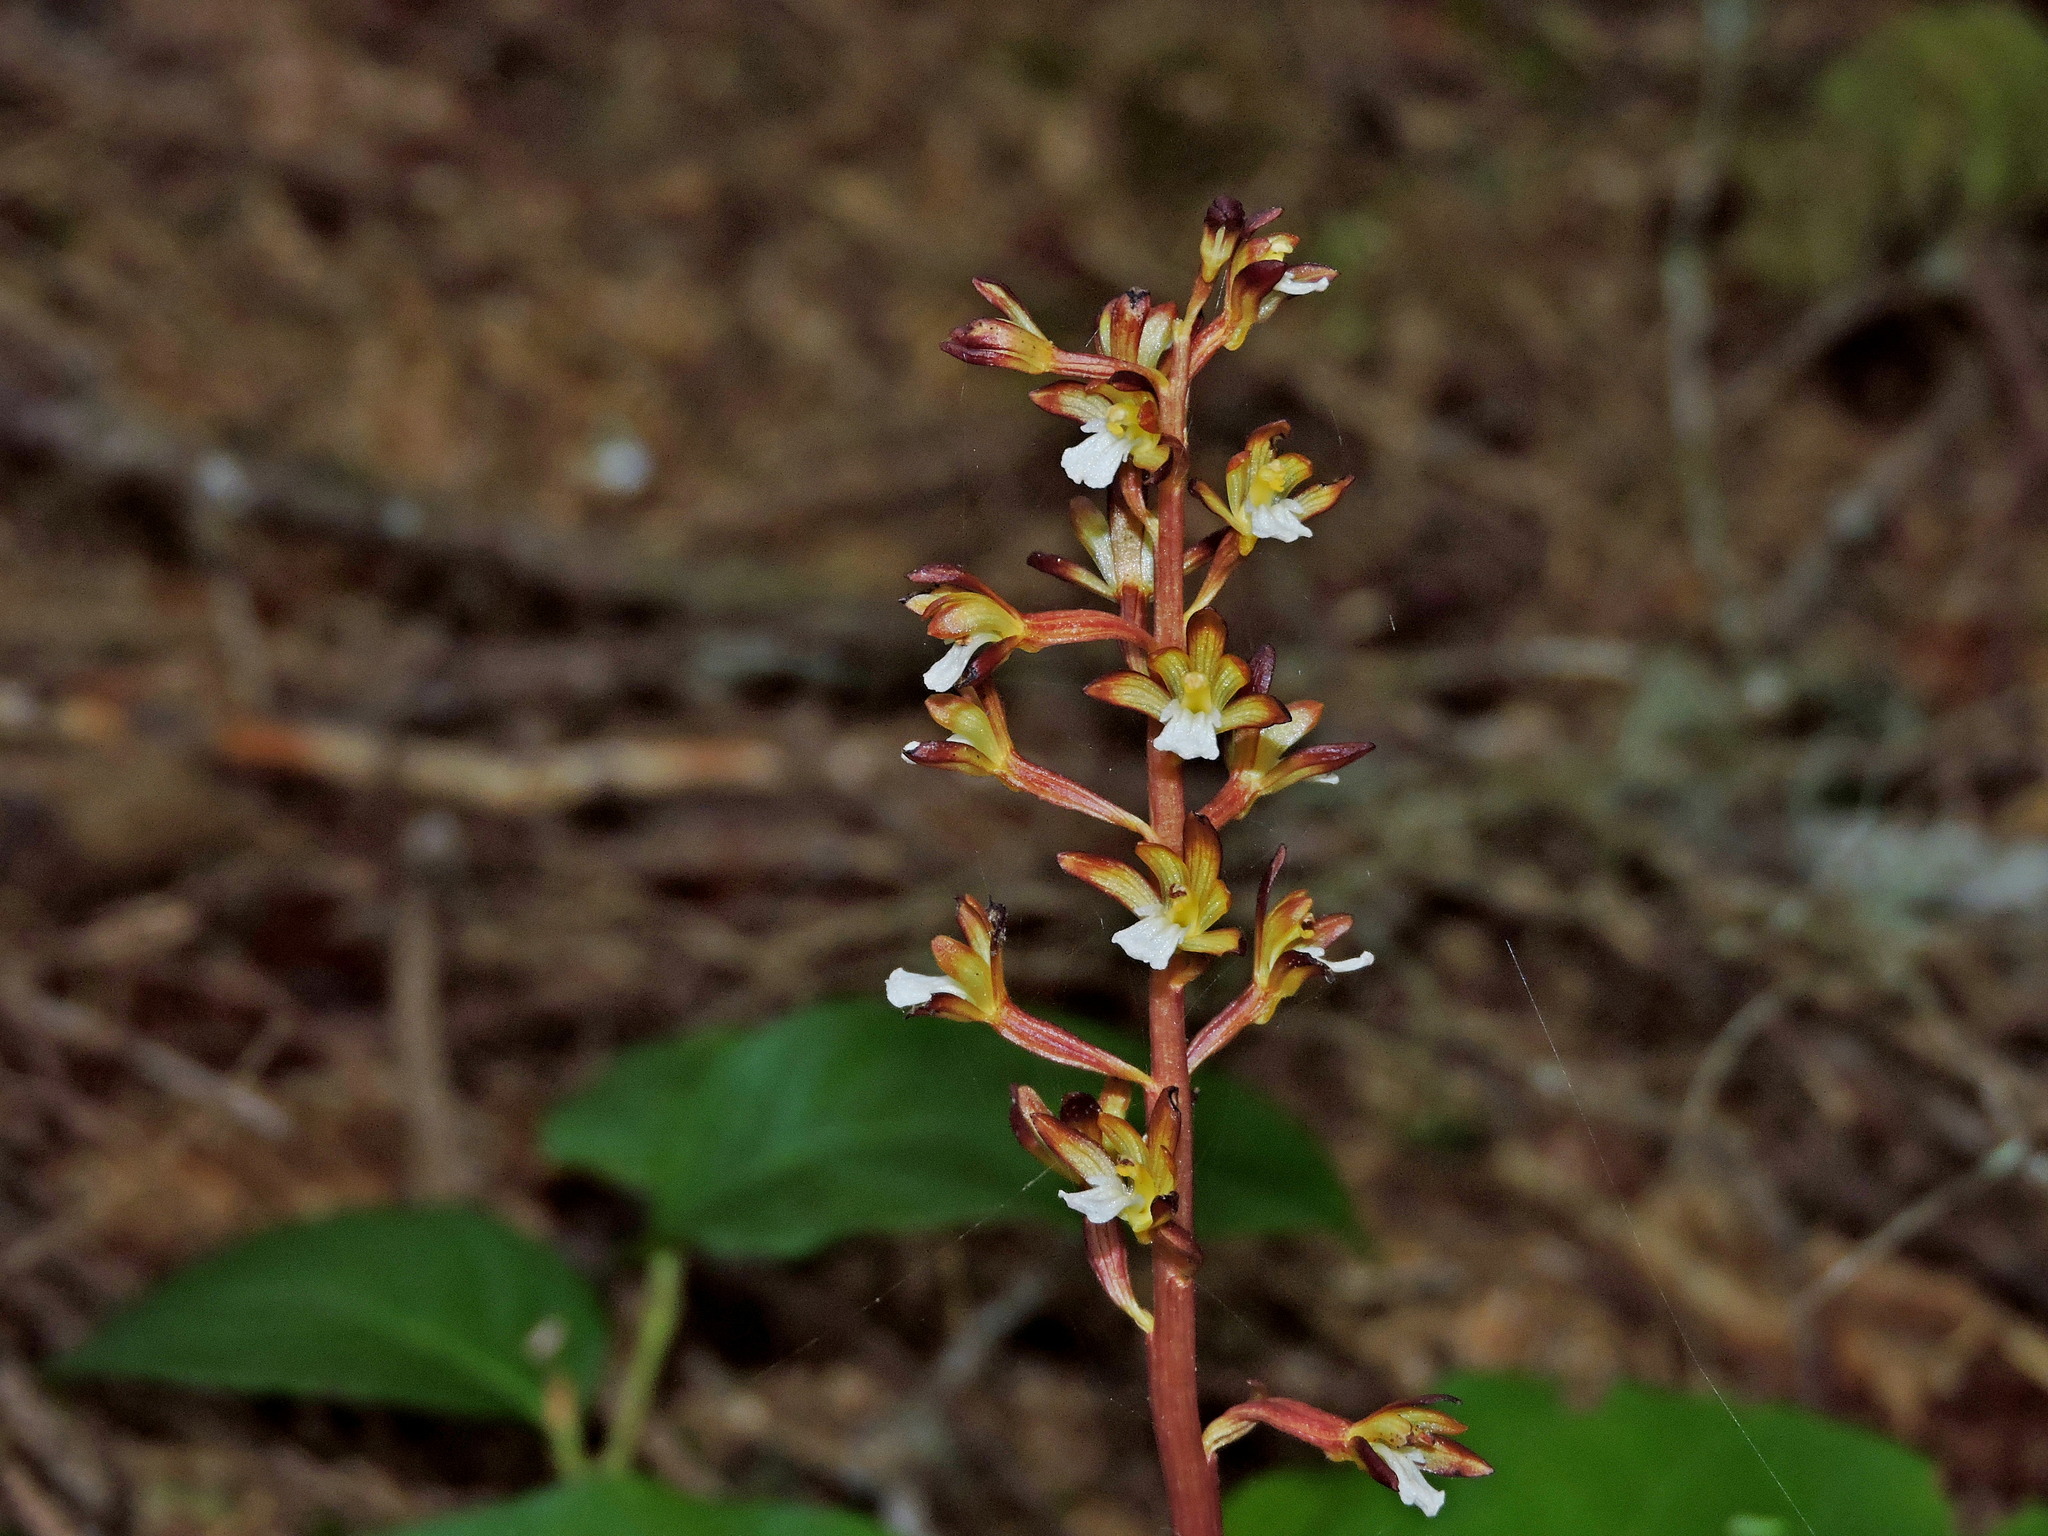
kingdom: Plantae
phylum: Tracheophyta
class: Liliopsida
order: Asparagales
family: Orchidaceae
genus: Corallorhiza
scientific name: Corallorhiza maculata
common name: Spotted coralroot
